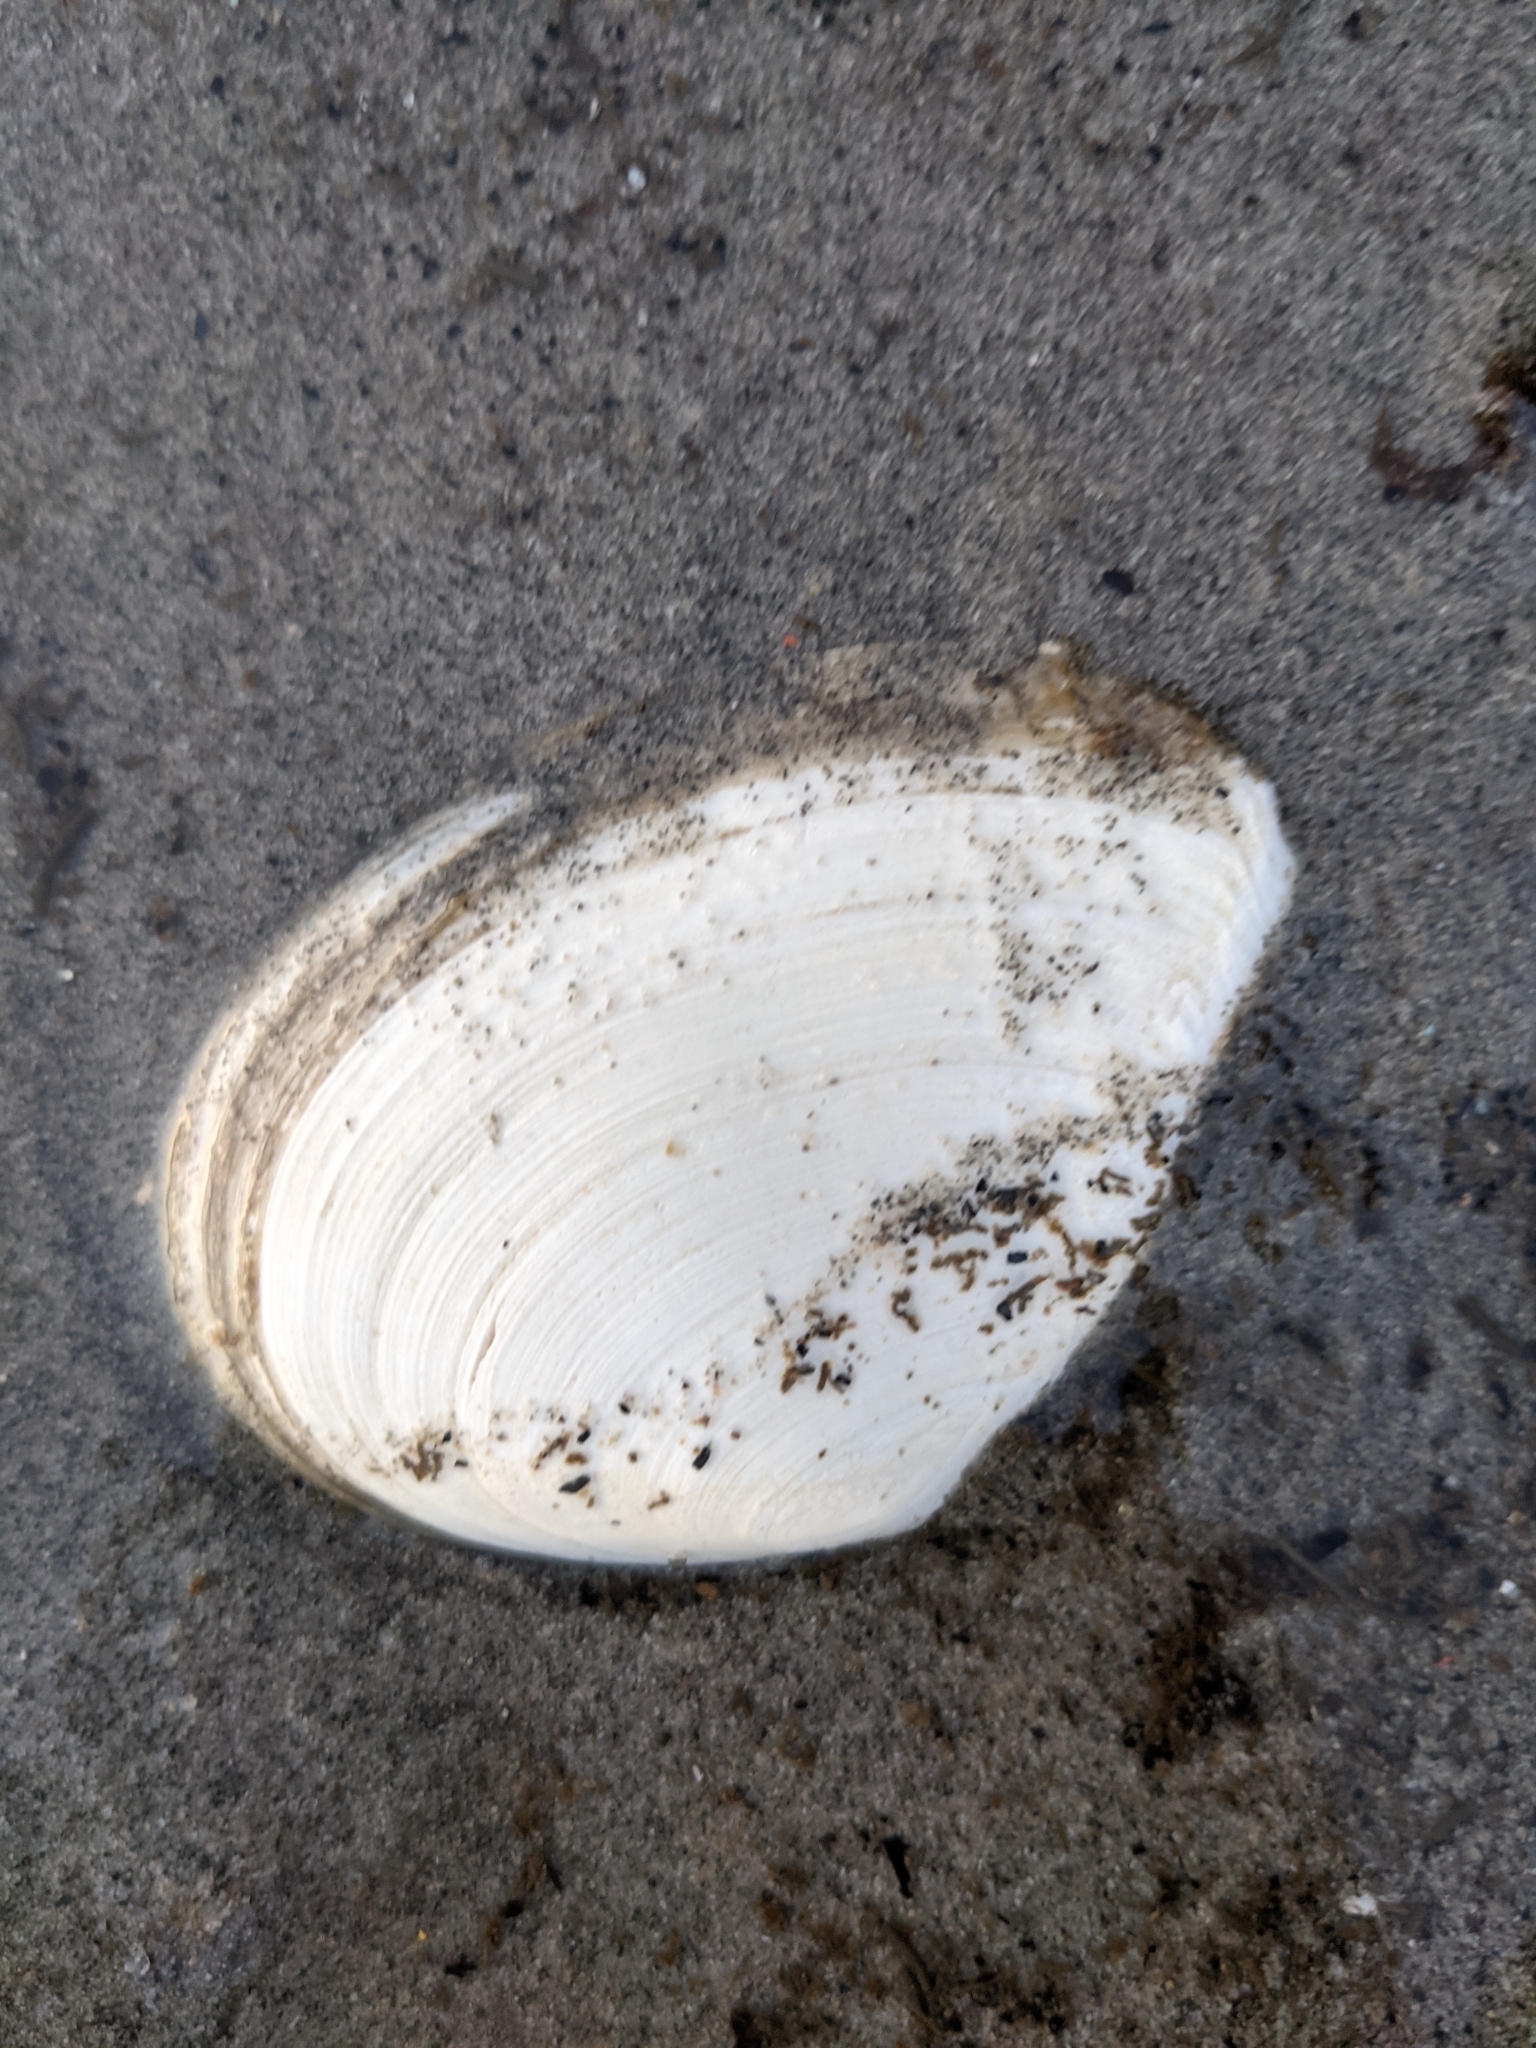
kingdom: Animalia
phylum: Mollusca
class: Bivalvia
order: Cardiida
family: Tellinidae
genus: Macoma
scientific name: Macoma nasuta
